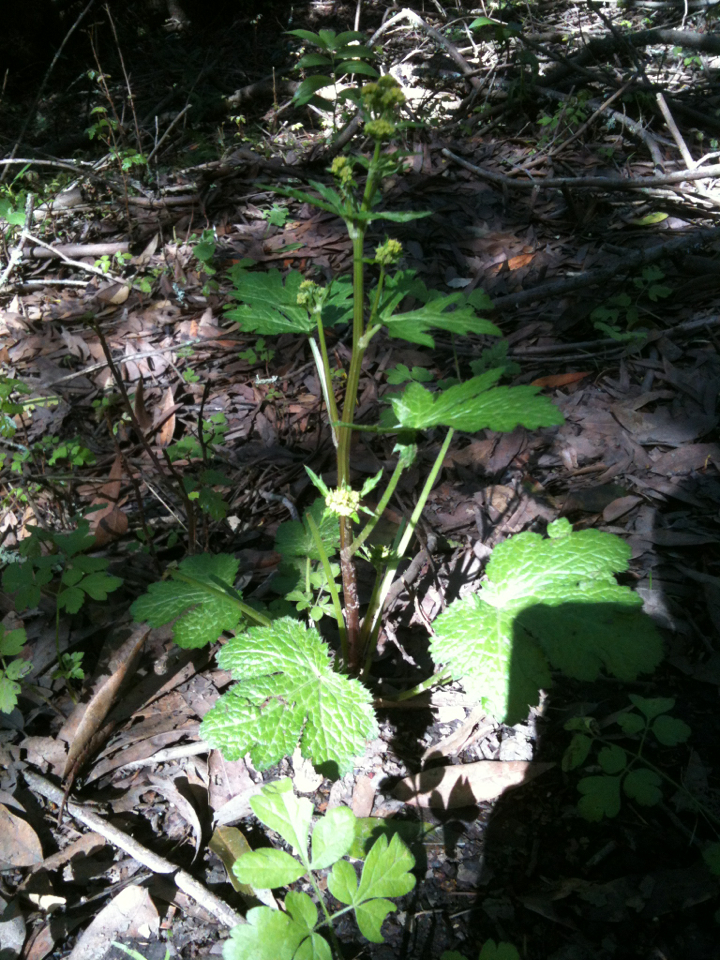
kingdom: Plantae
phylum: Tracheophyta
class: Magnoliopsida
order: Apiales
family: Apiaceae
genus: Sanicula
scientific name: Sanicula crassicaulis
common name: Western snakeroot
